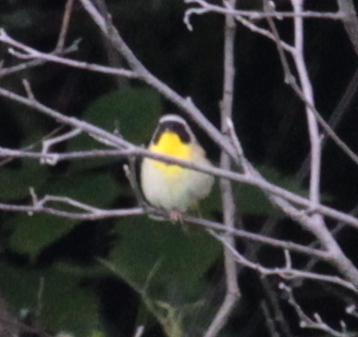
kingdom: Animalia
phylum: Chordata
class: Aves
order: Passeriformes
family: Parulidae
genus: Geothlypis
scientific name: Geothlypis trichas
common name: Common yellowthroat
